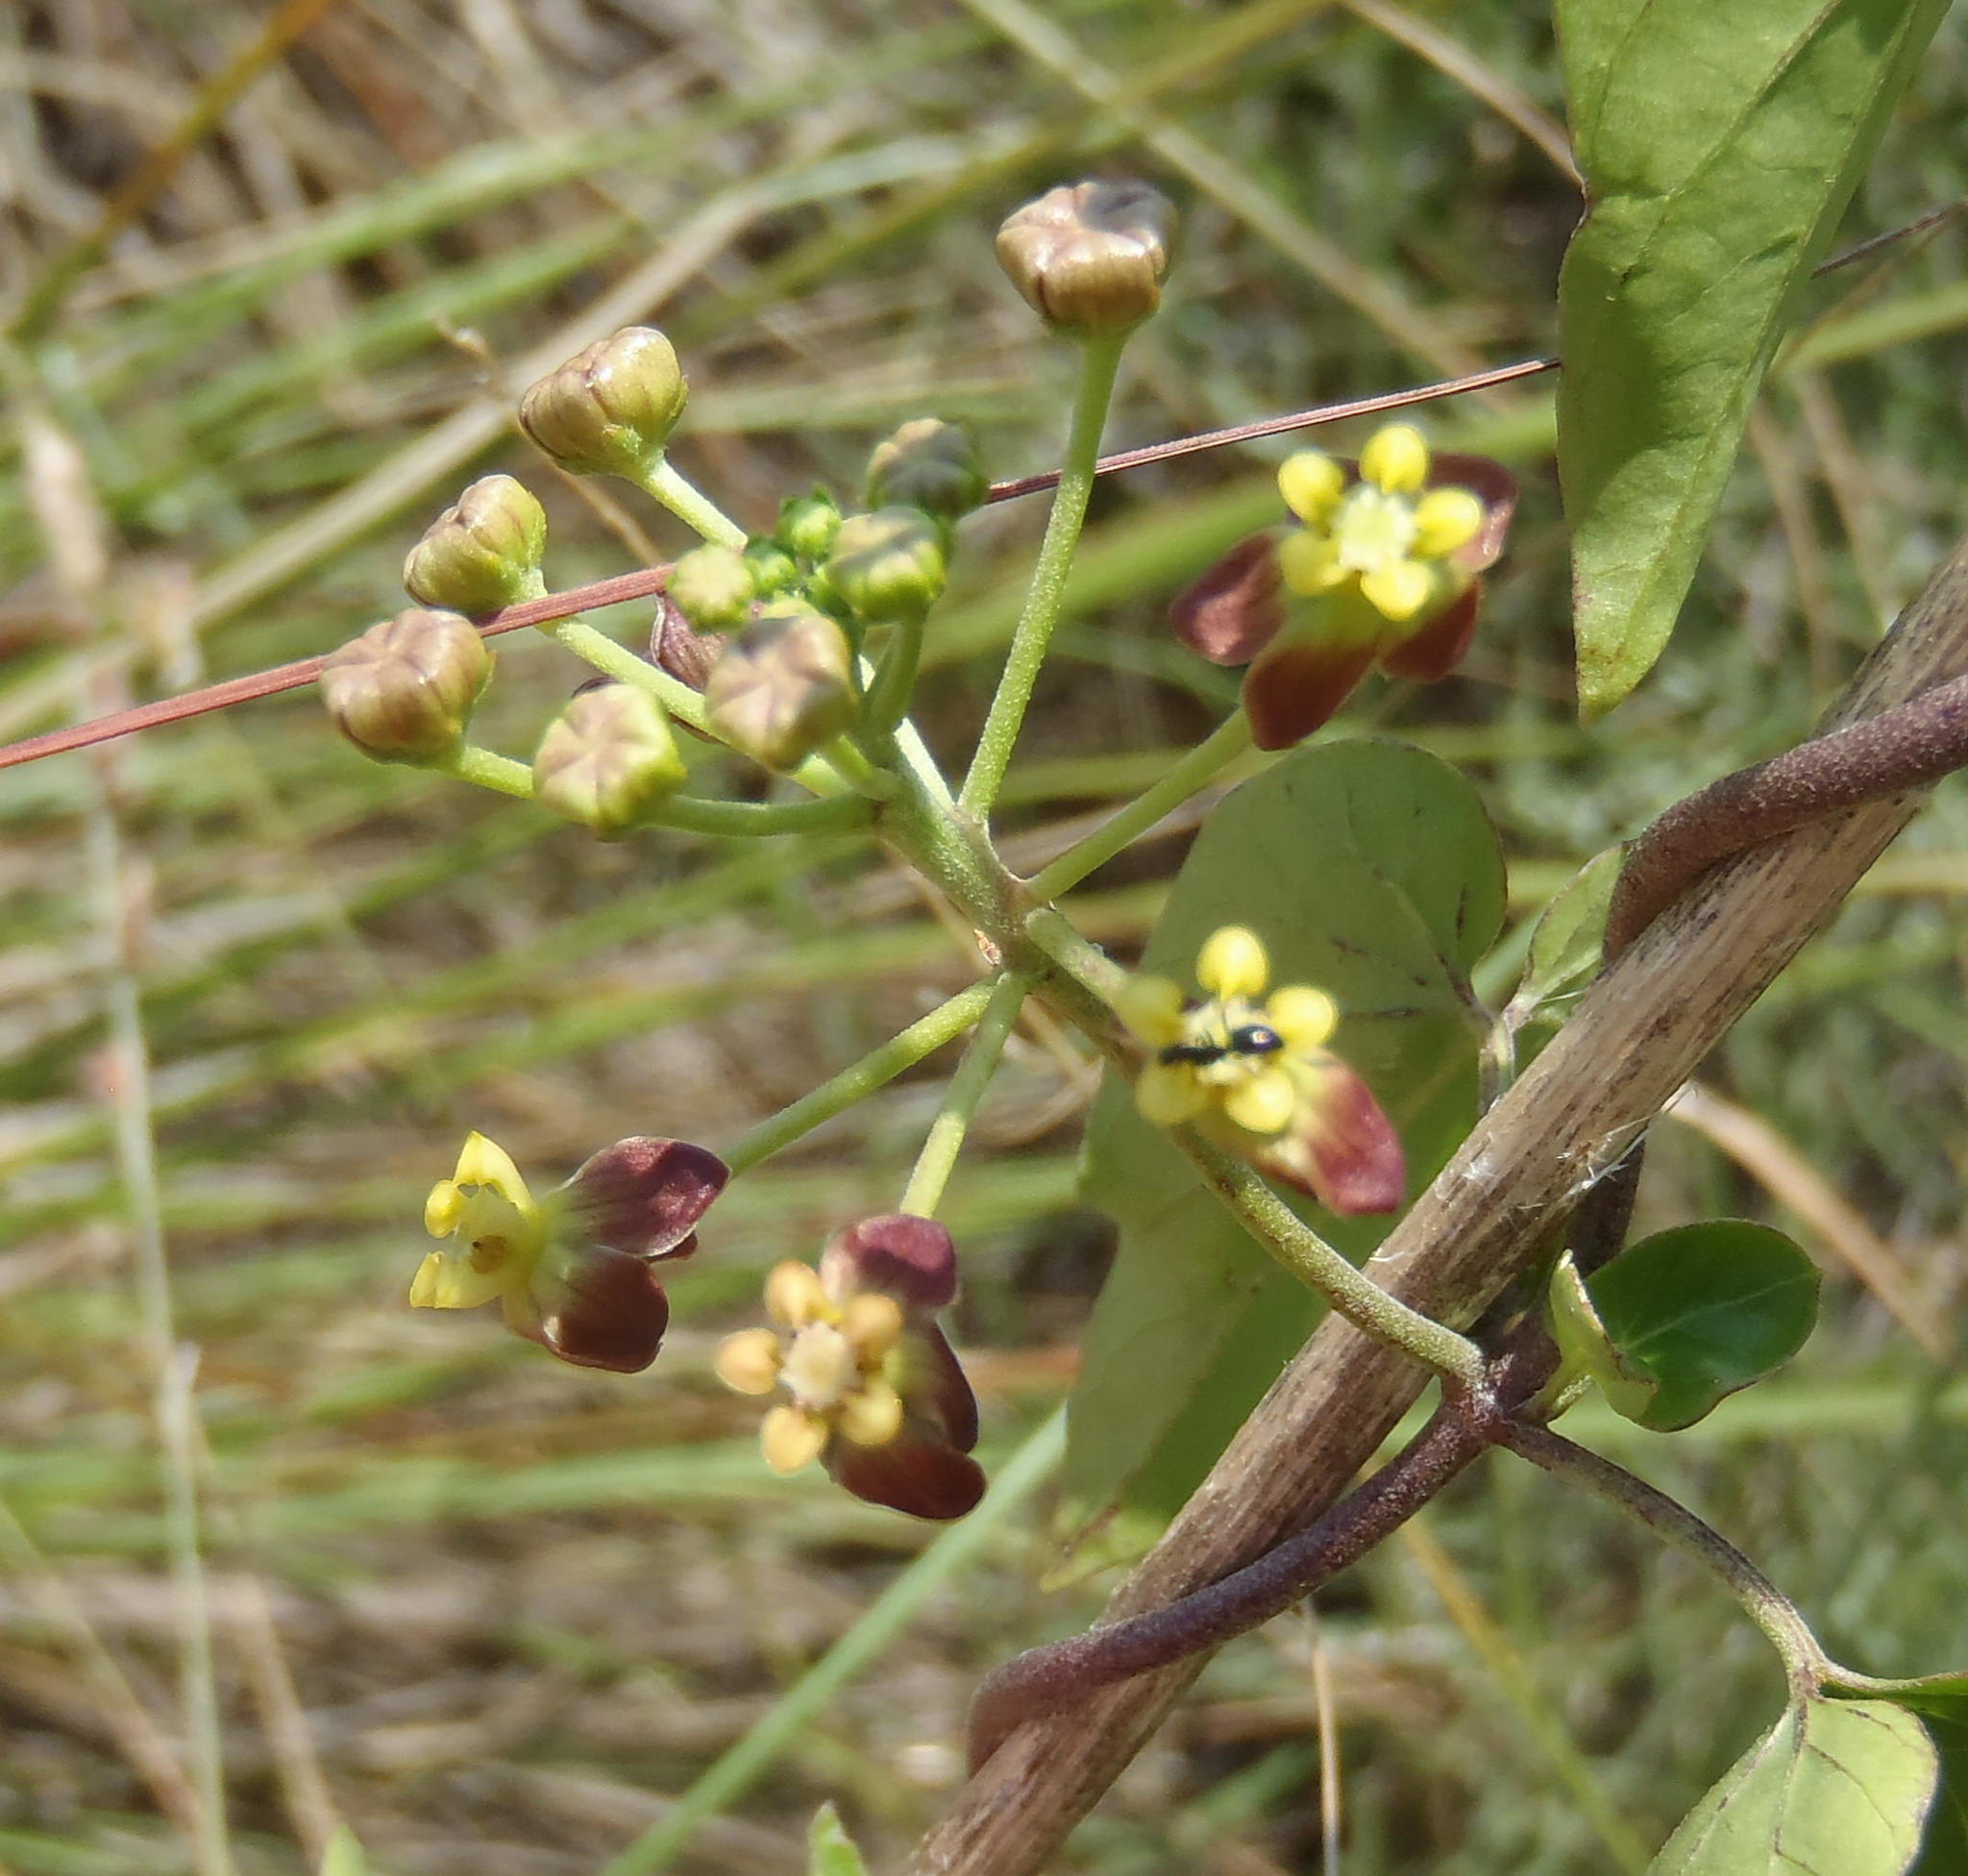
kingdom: Plantae
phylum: Tracheophyta
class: Magnoliopsida
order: Gentianales
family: Apocynaceae
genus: Cynanchum
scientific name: Cynanchum
